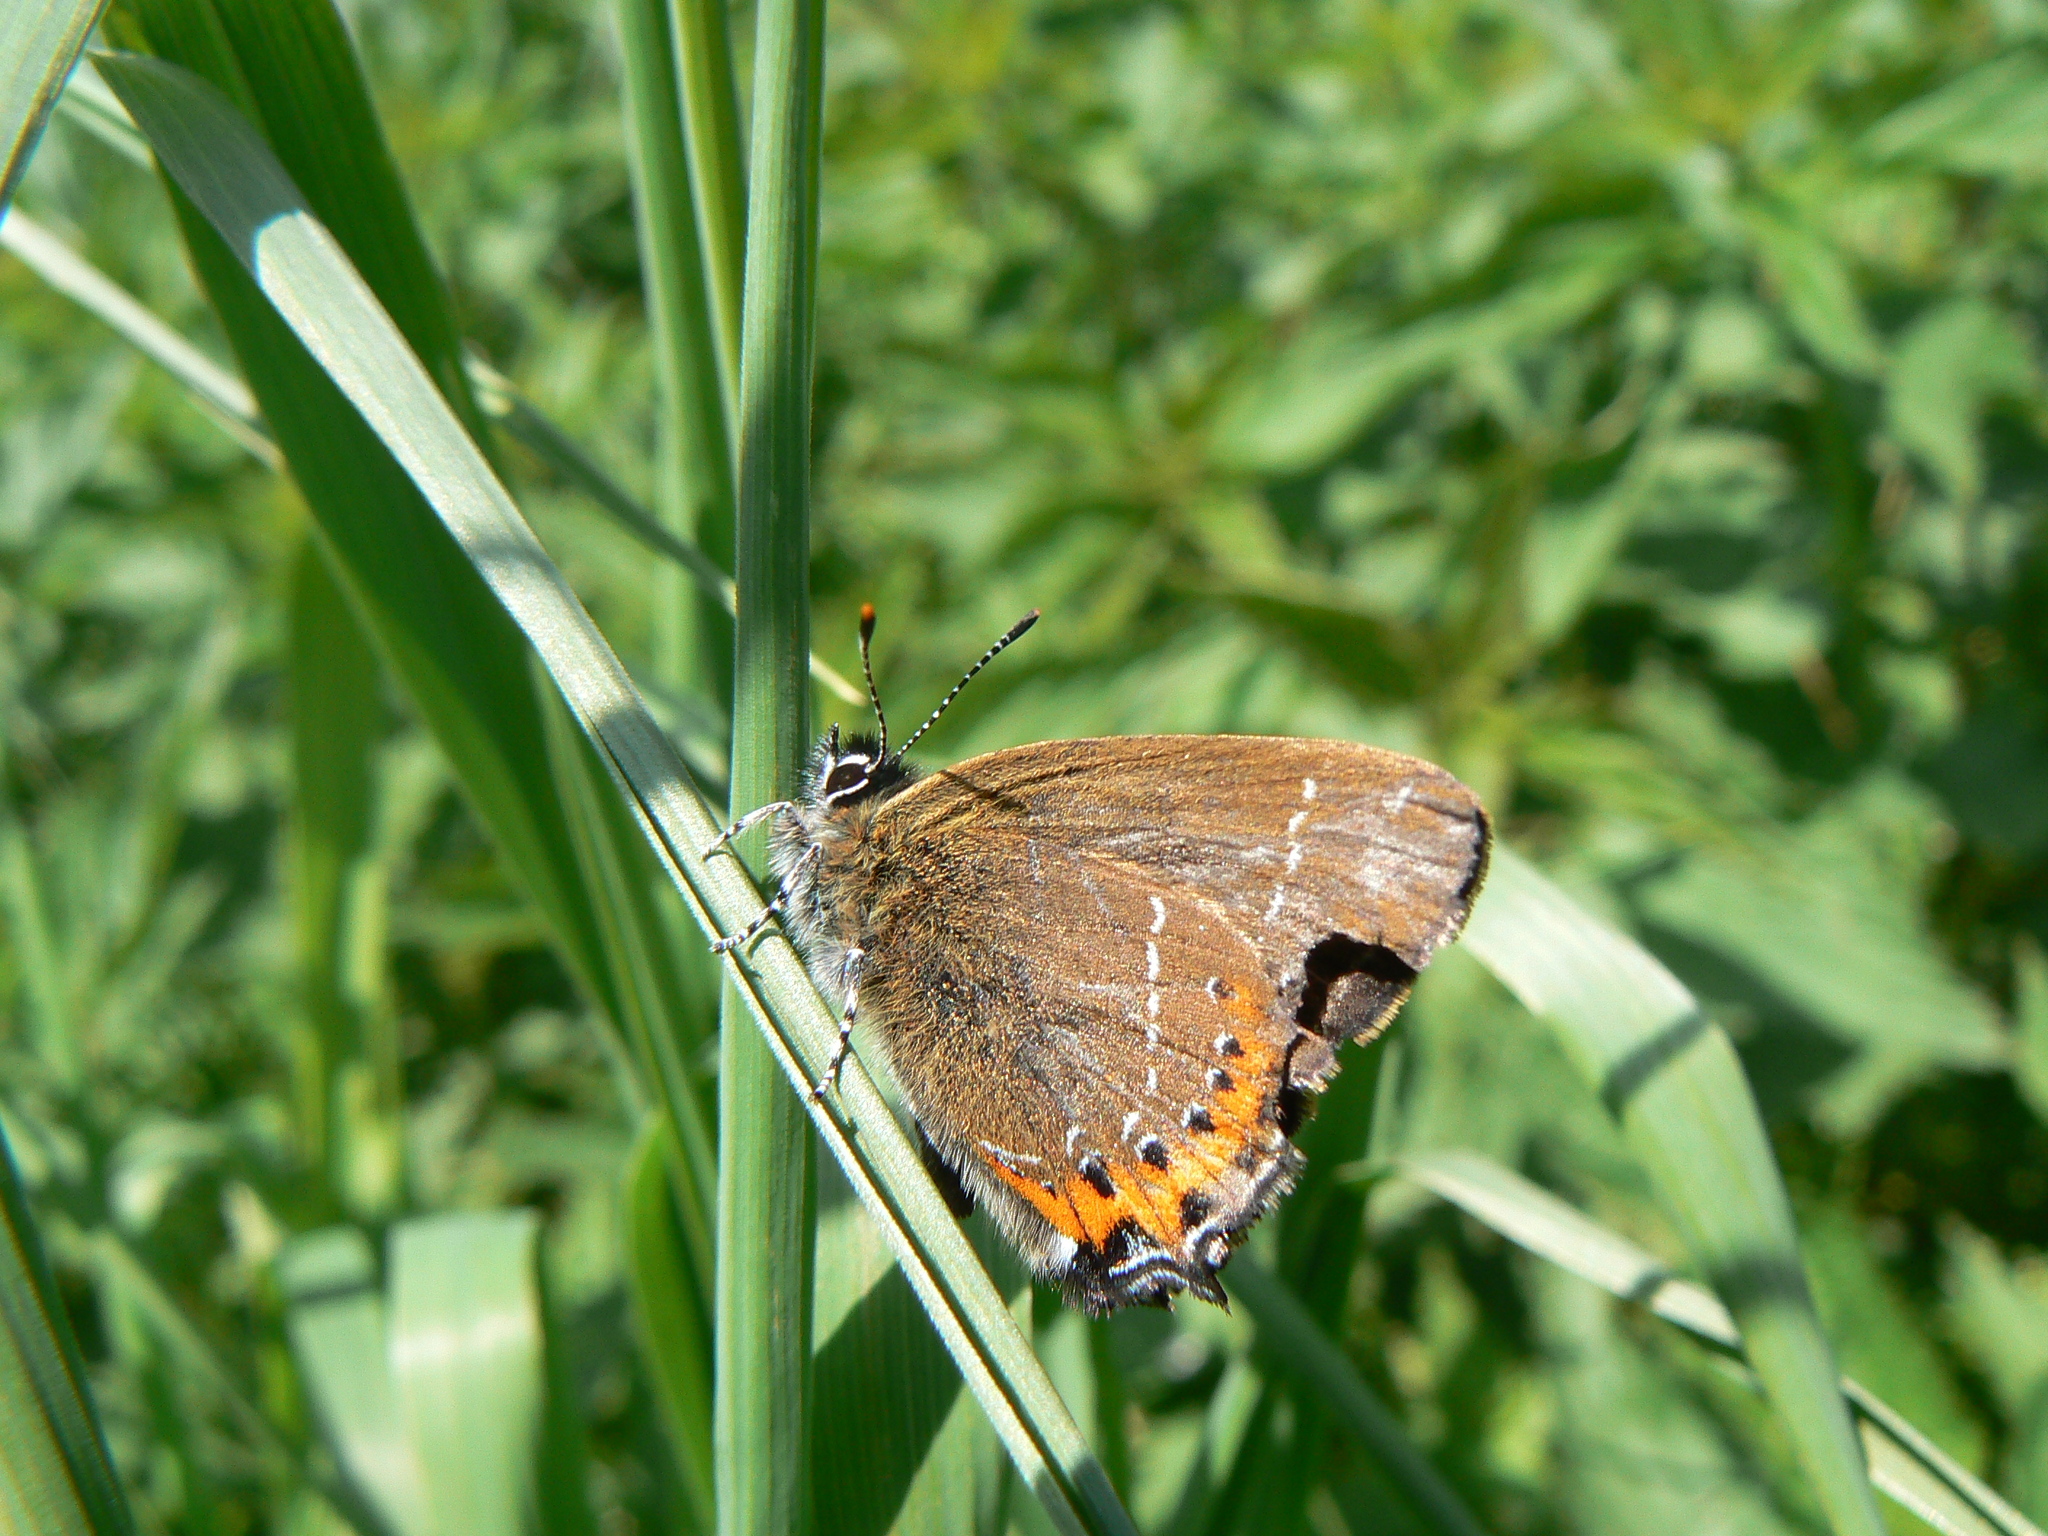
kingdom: Animalia
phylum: Arthropoda
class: Insecta
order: Lepidoptera
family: Lycaenidae
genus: Fixsenia
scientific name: Fixsenia pruni
